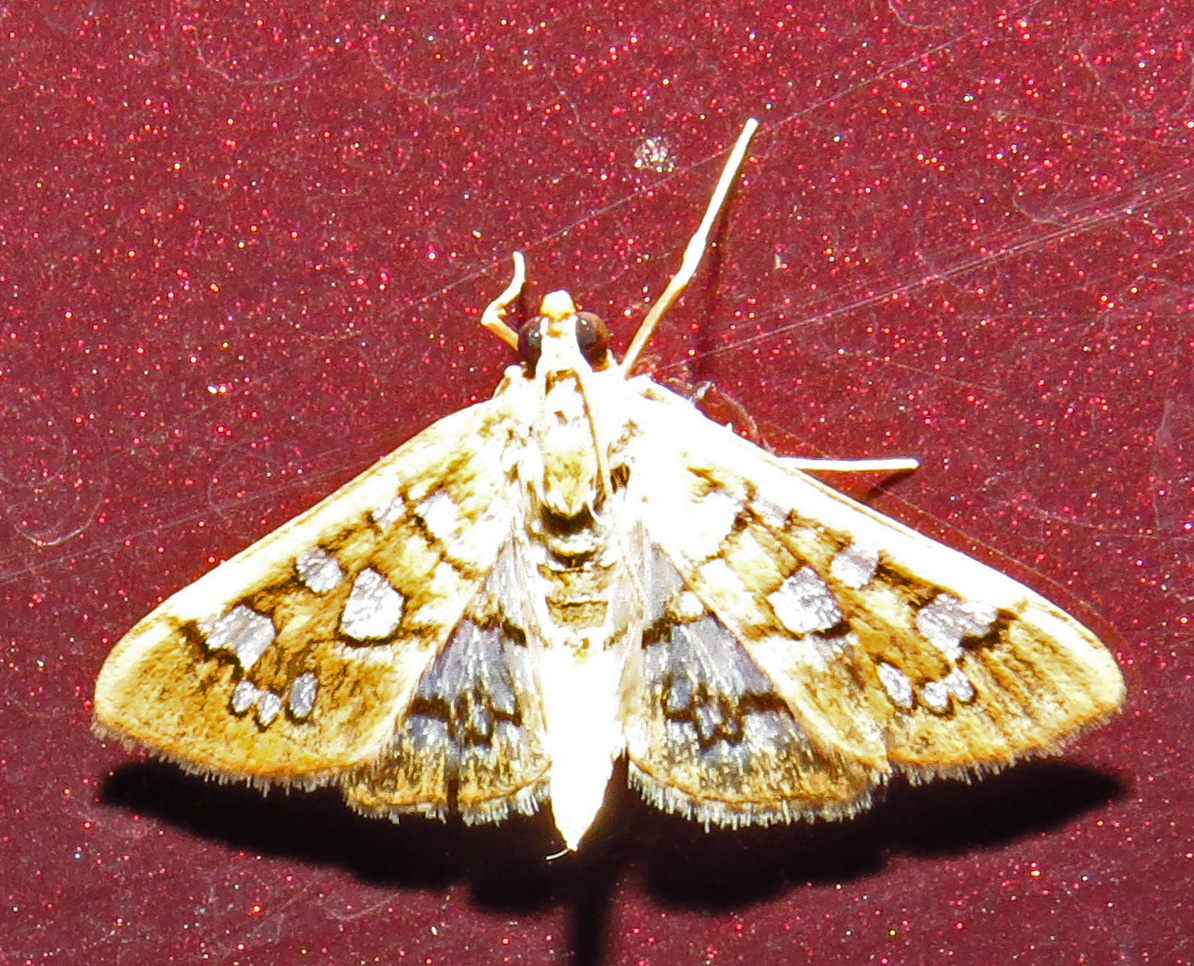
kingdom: Animalia
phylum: Arthropoda
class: Insecta
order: Lepidoptera
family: Crambidae
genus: Samea
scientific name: Samea baccatalis
